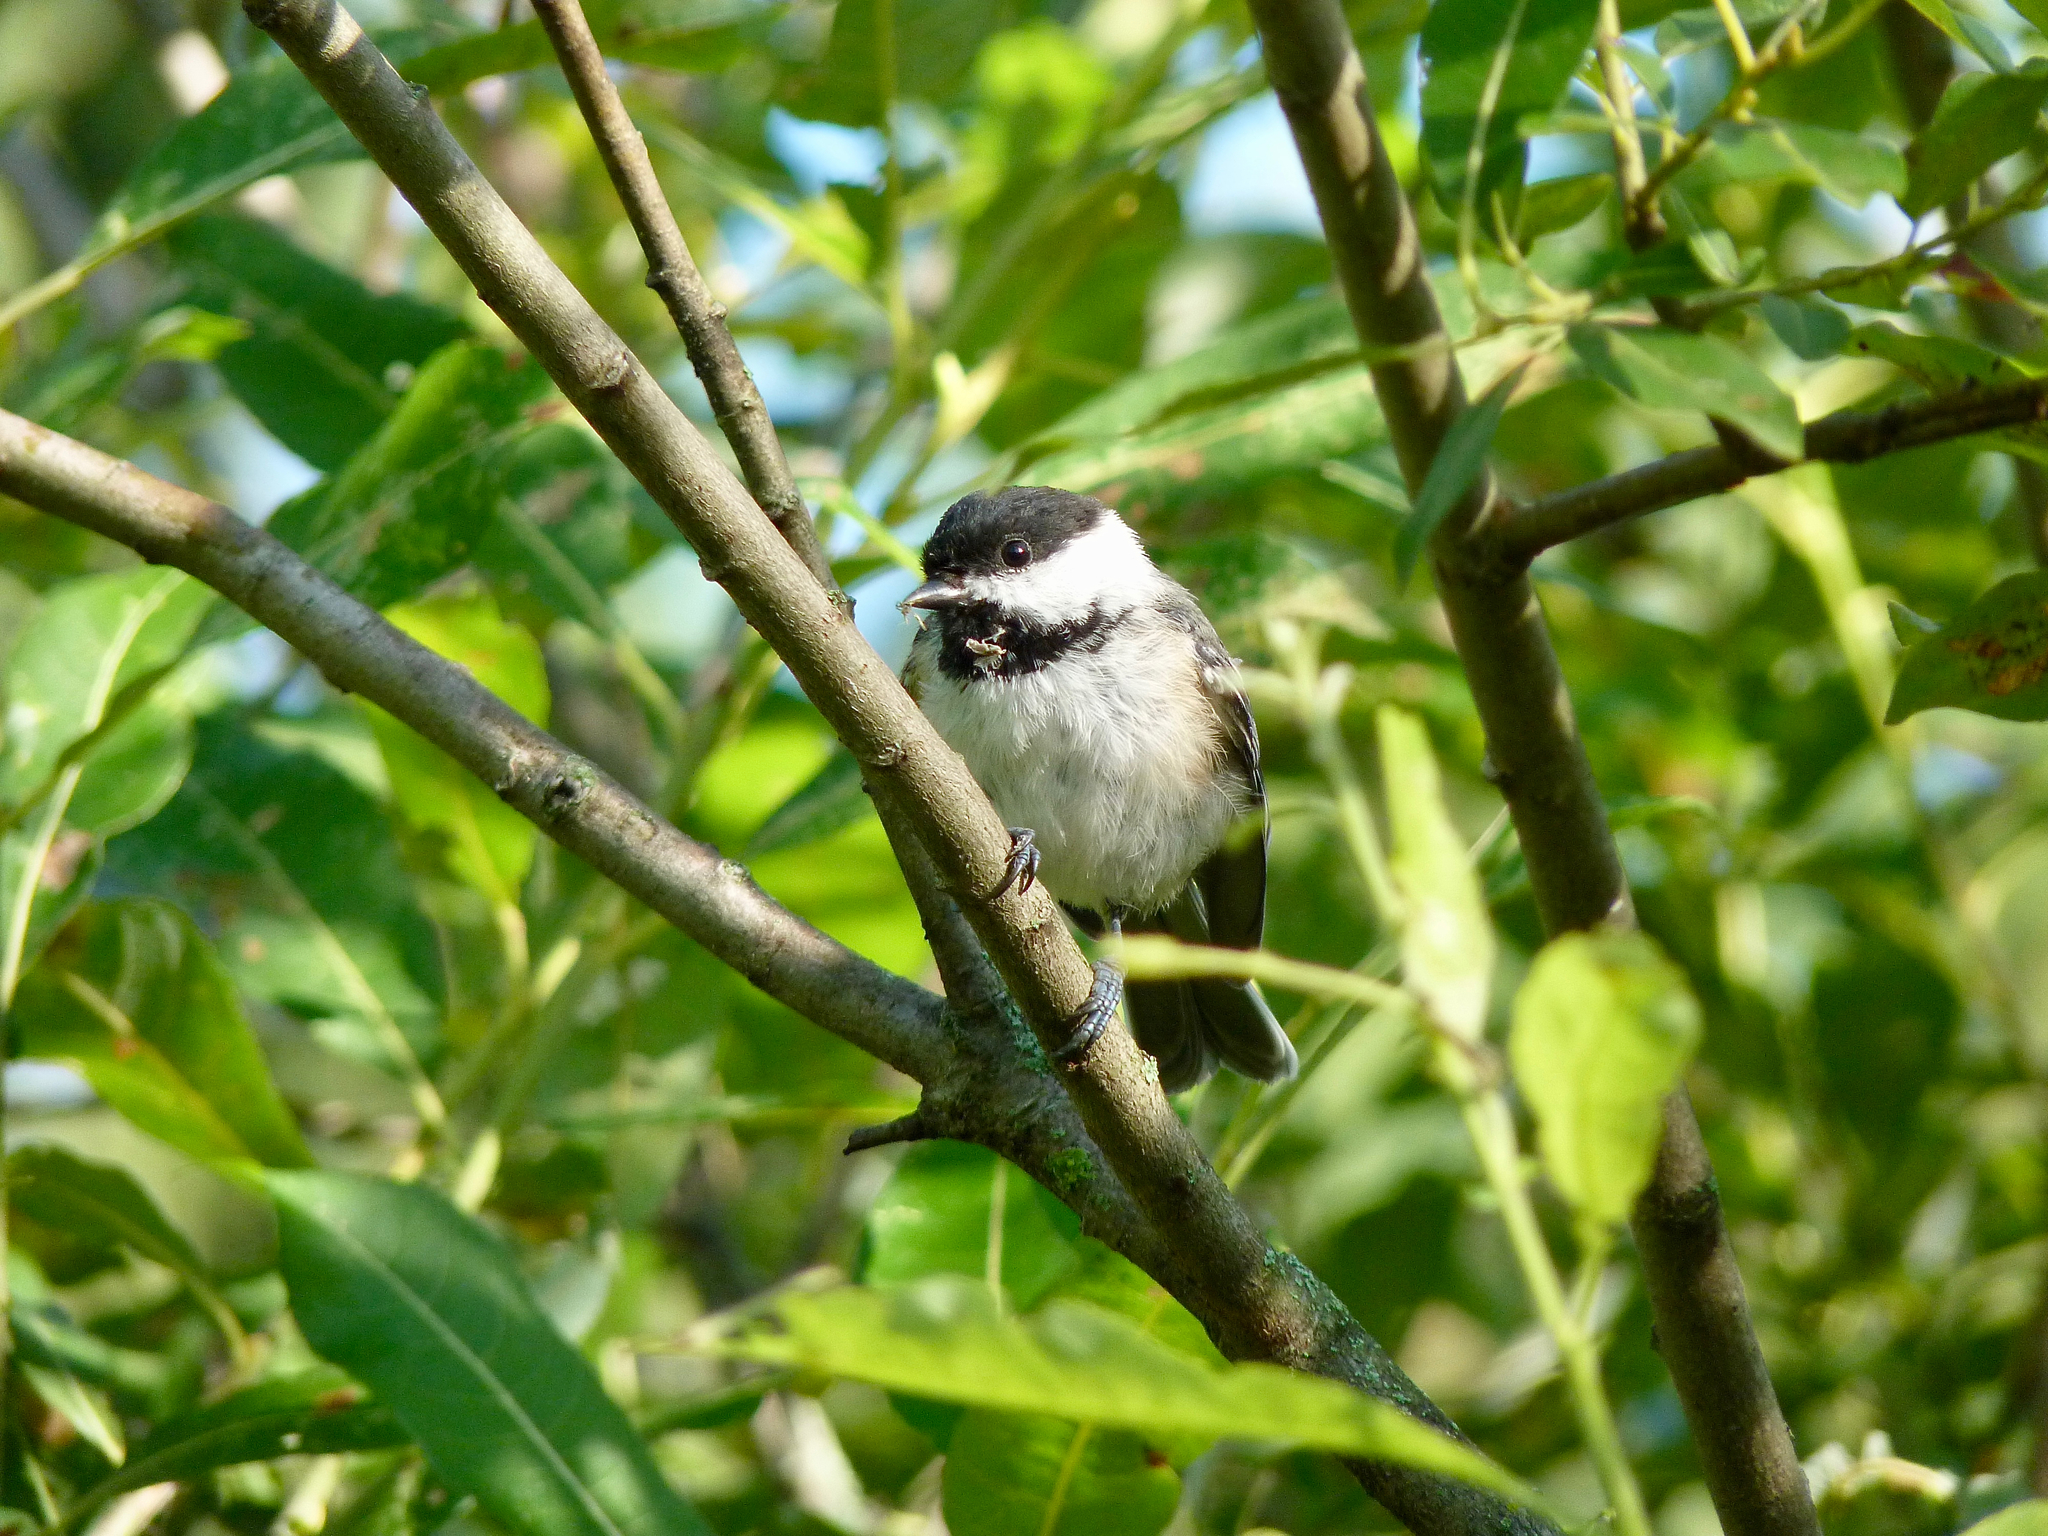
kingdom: Animalia
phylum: Chordata
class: Aves
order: Passeriformes
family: Paridae
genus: Poecile
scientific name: Poecile atricapillus
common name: Black-capped chickadee
